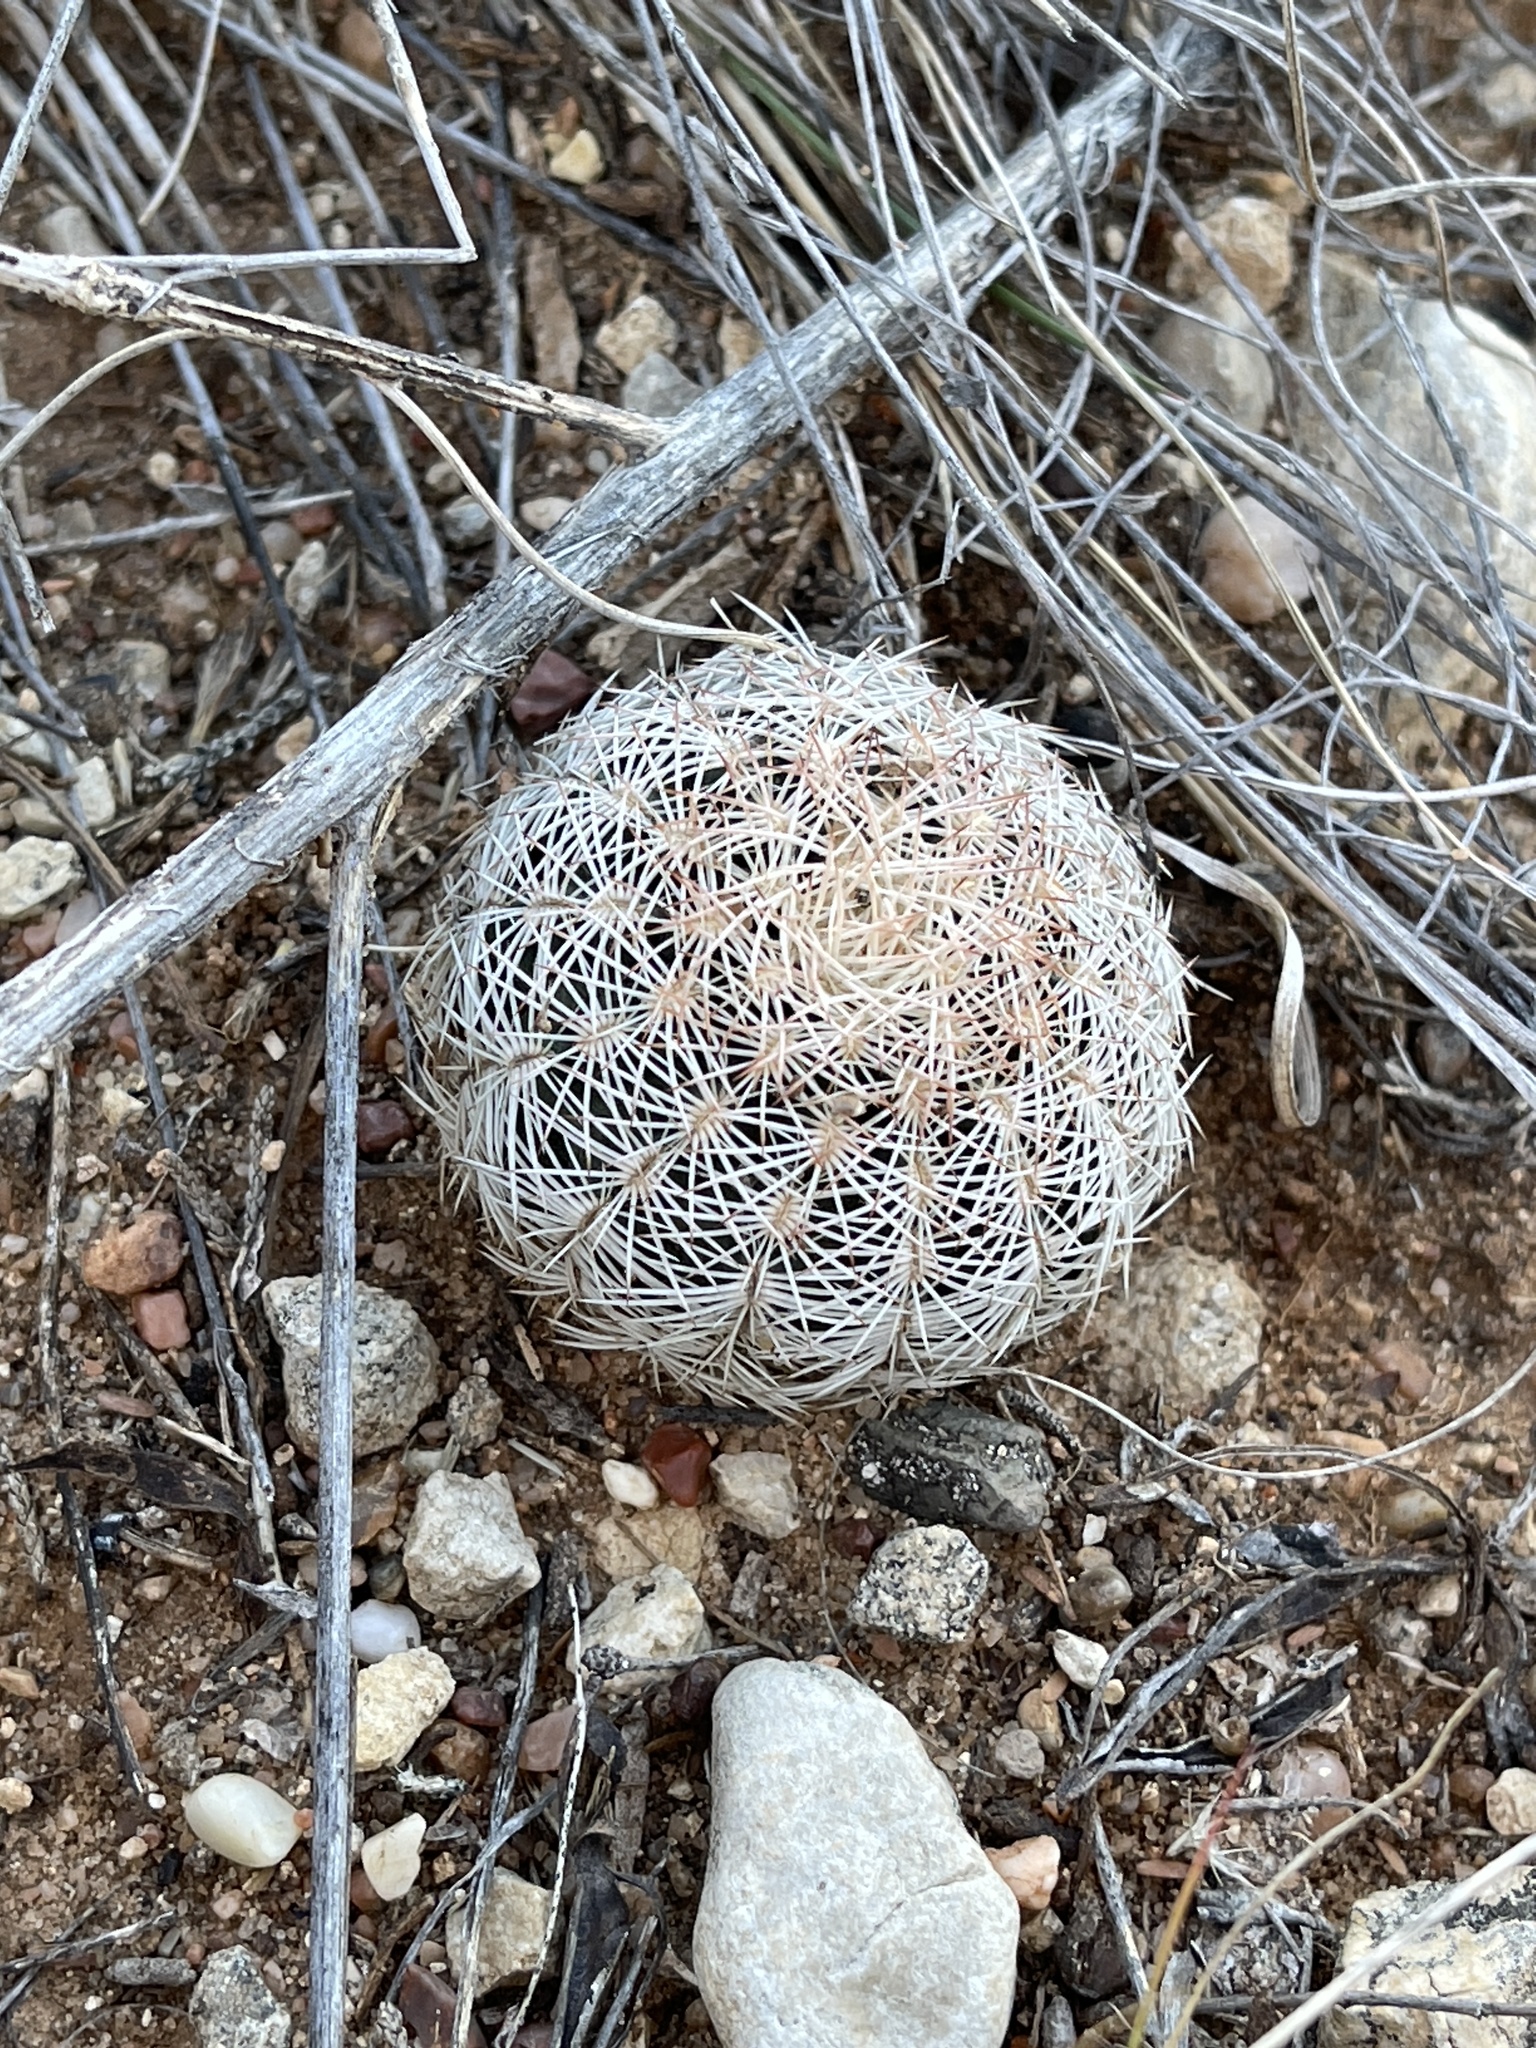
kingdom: Plantae
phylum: Tracheophyta
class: Magnoliopsida
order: Caryophyllales
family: Cactaceae
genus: Echinocereus
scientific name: Echinocereus reichenbachii
